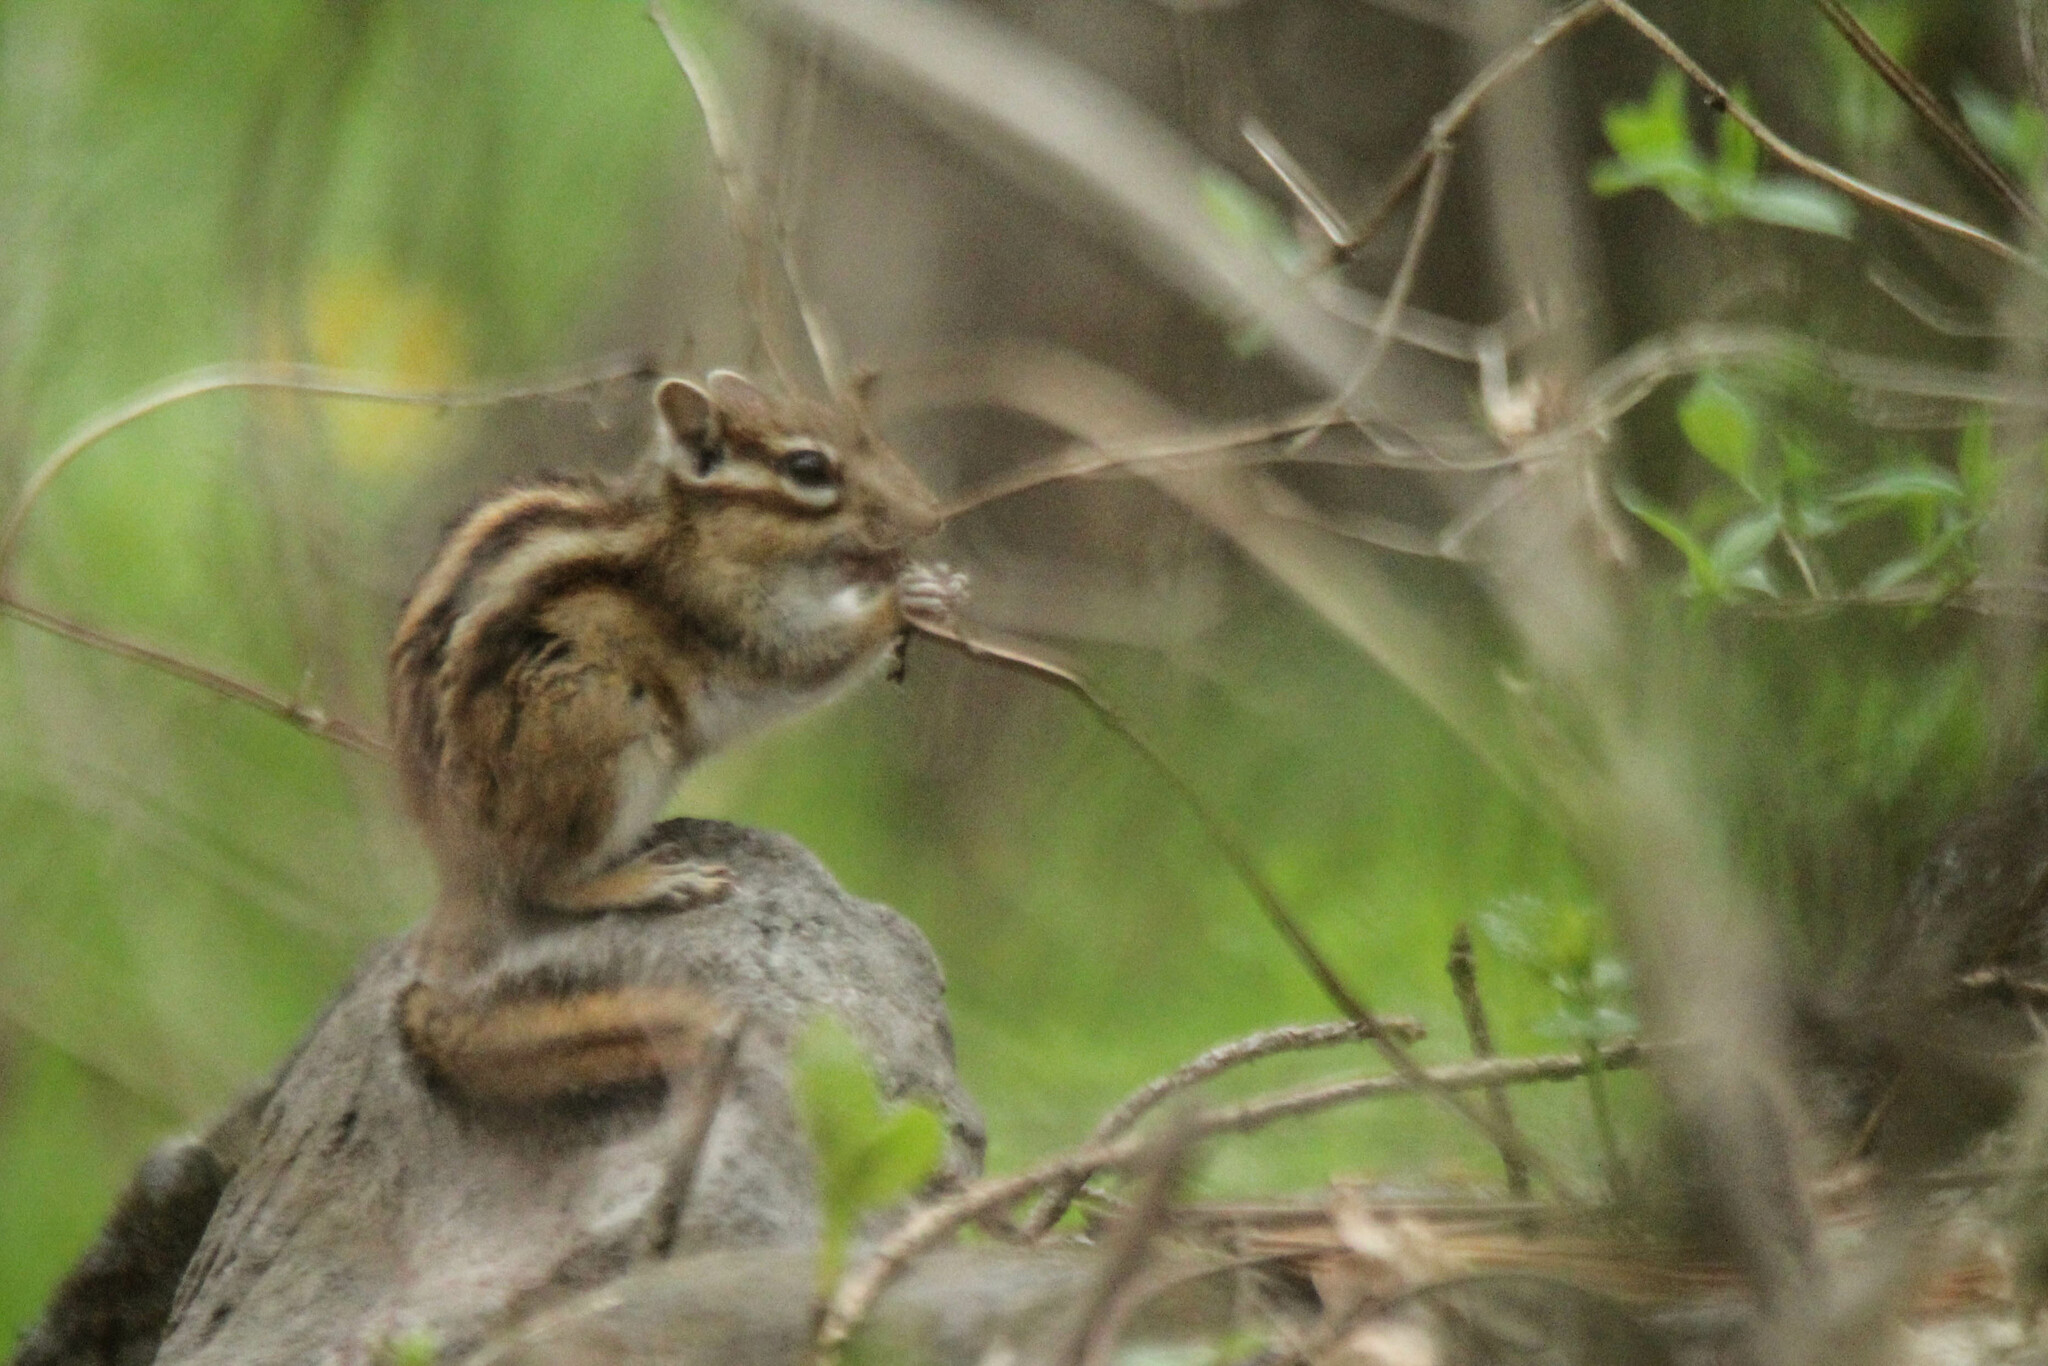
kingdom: Animalia
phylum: Chordata
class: Mammalia
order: Rodentia
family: Sciuridae
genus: Tamias
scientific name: Tamias sibiricus
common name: Siberian chipmunk
